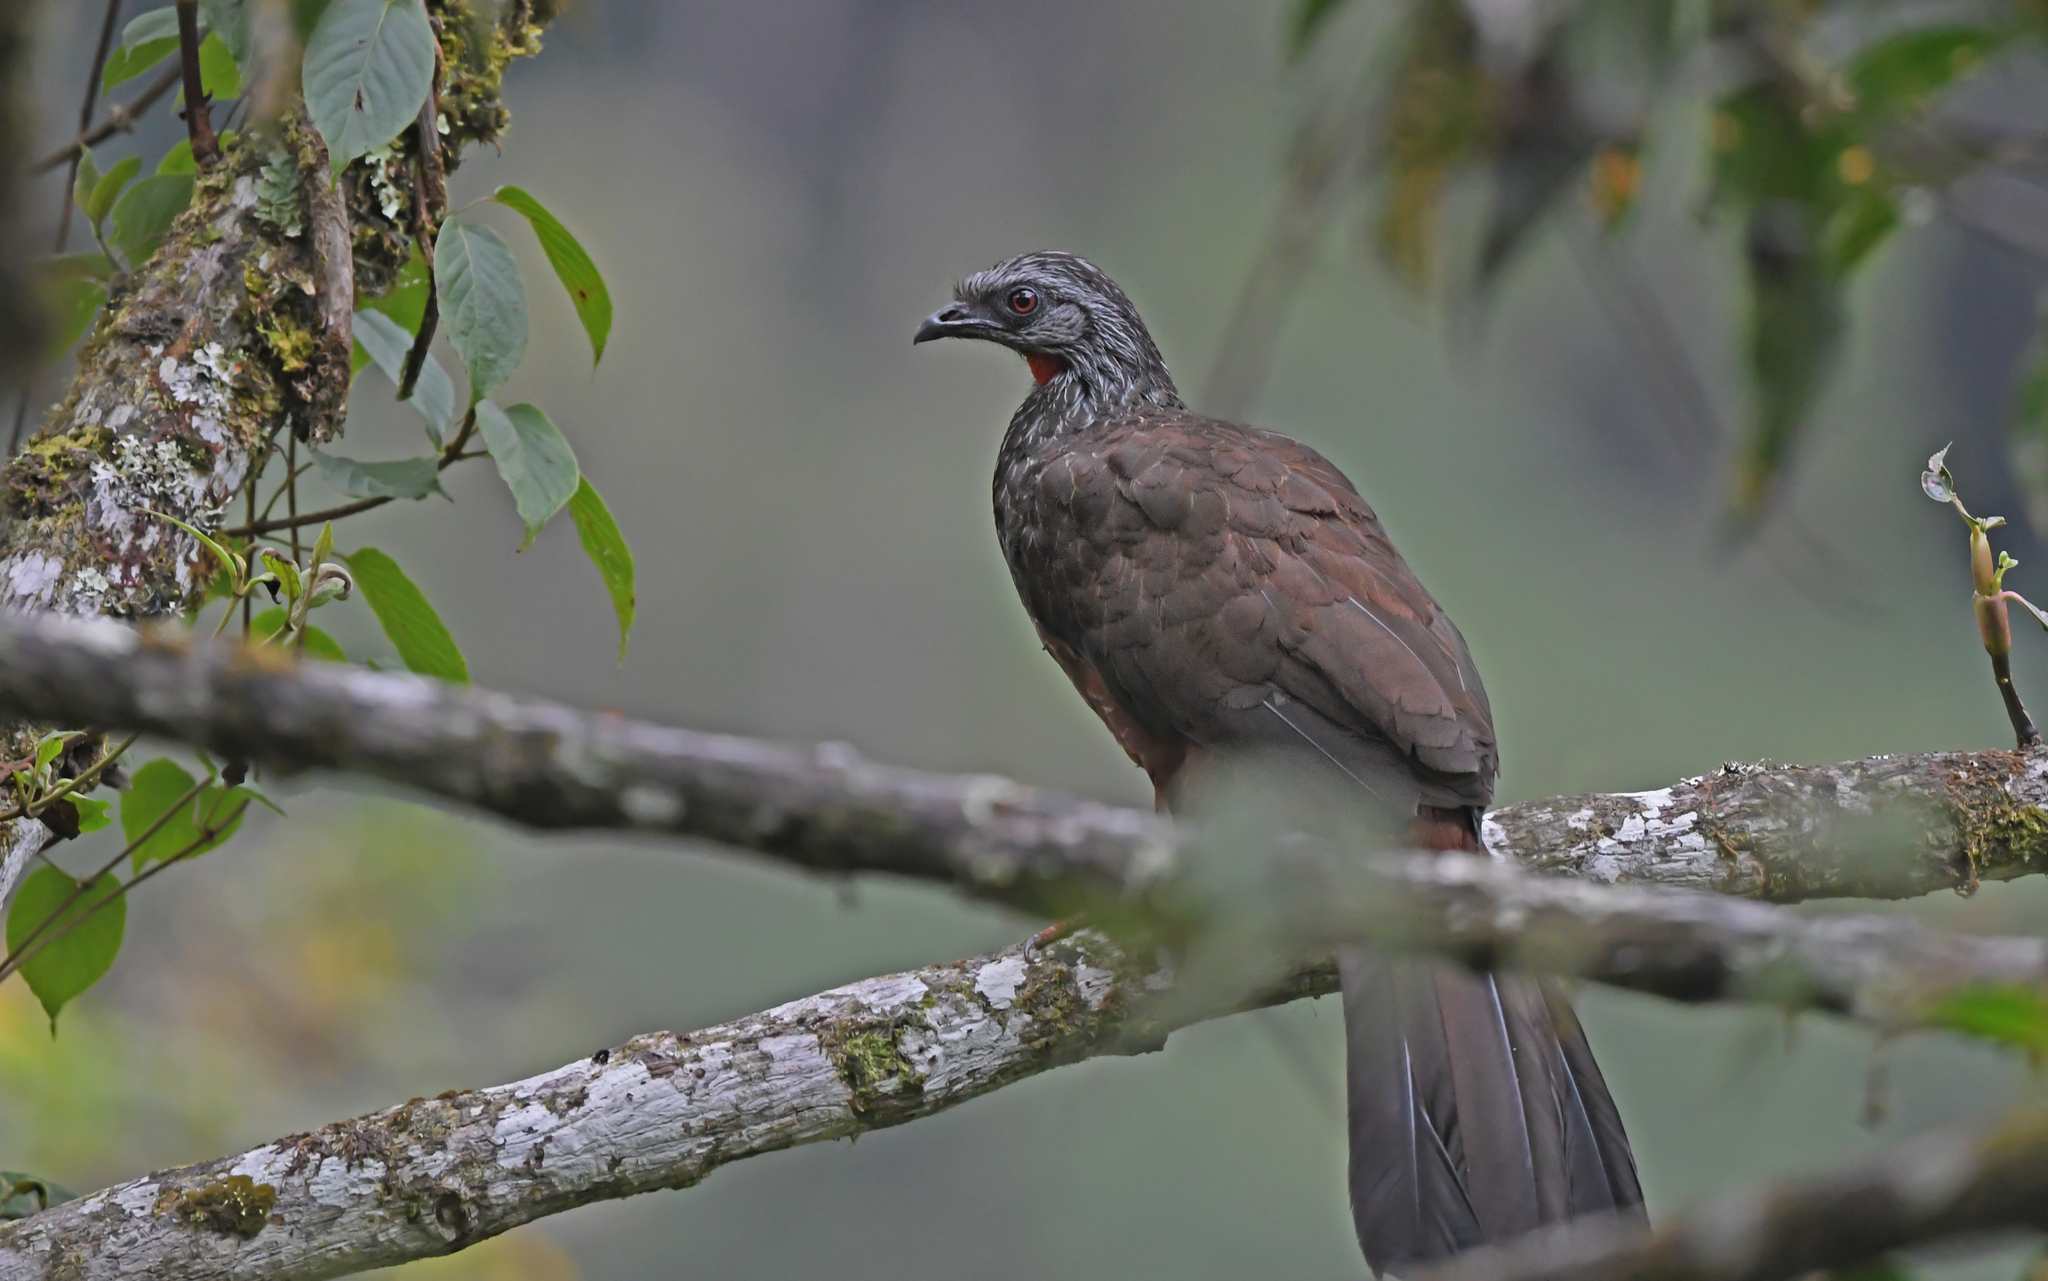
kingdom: Animalia
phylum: Chordata
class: Aves
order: Galliformes
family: Cracidae
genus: Penelope
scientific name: Penelope montagnii
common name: Andean guan
